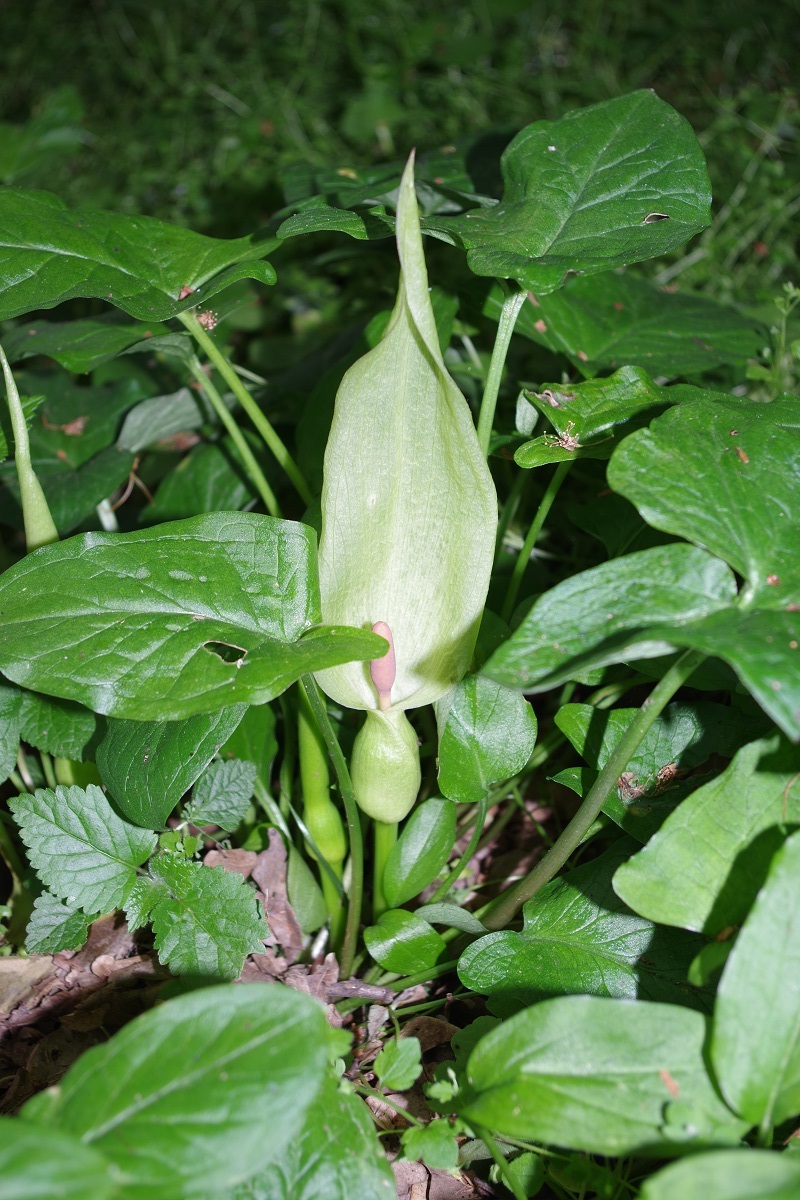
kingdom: Plantae
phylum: Tracheophyta
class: Liliopsida
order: Alismatales
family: Araceae
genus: Arum
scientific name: Arum maculatum
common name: Lords-and-ladies
